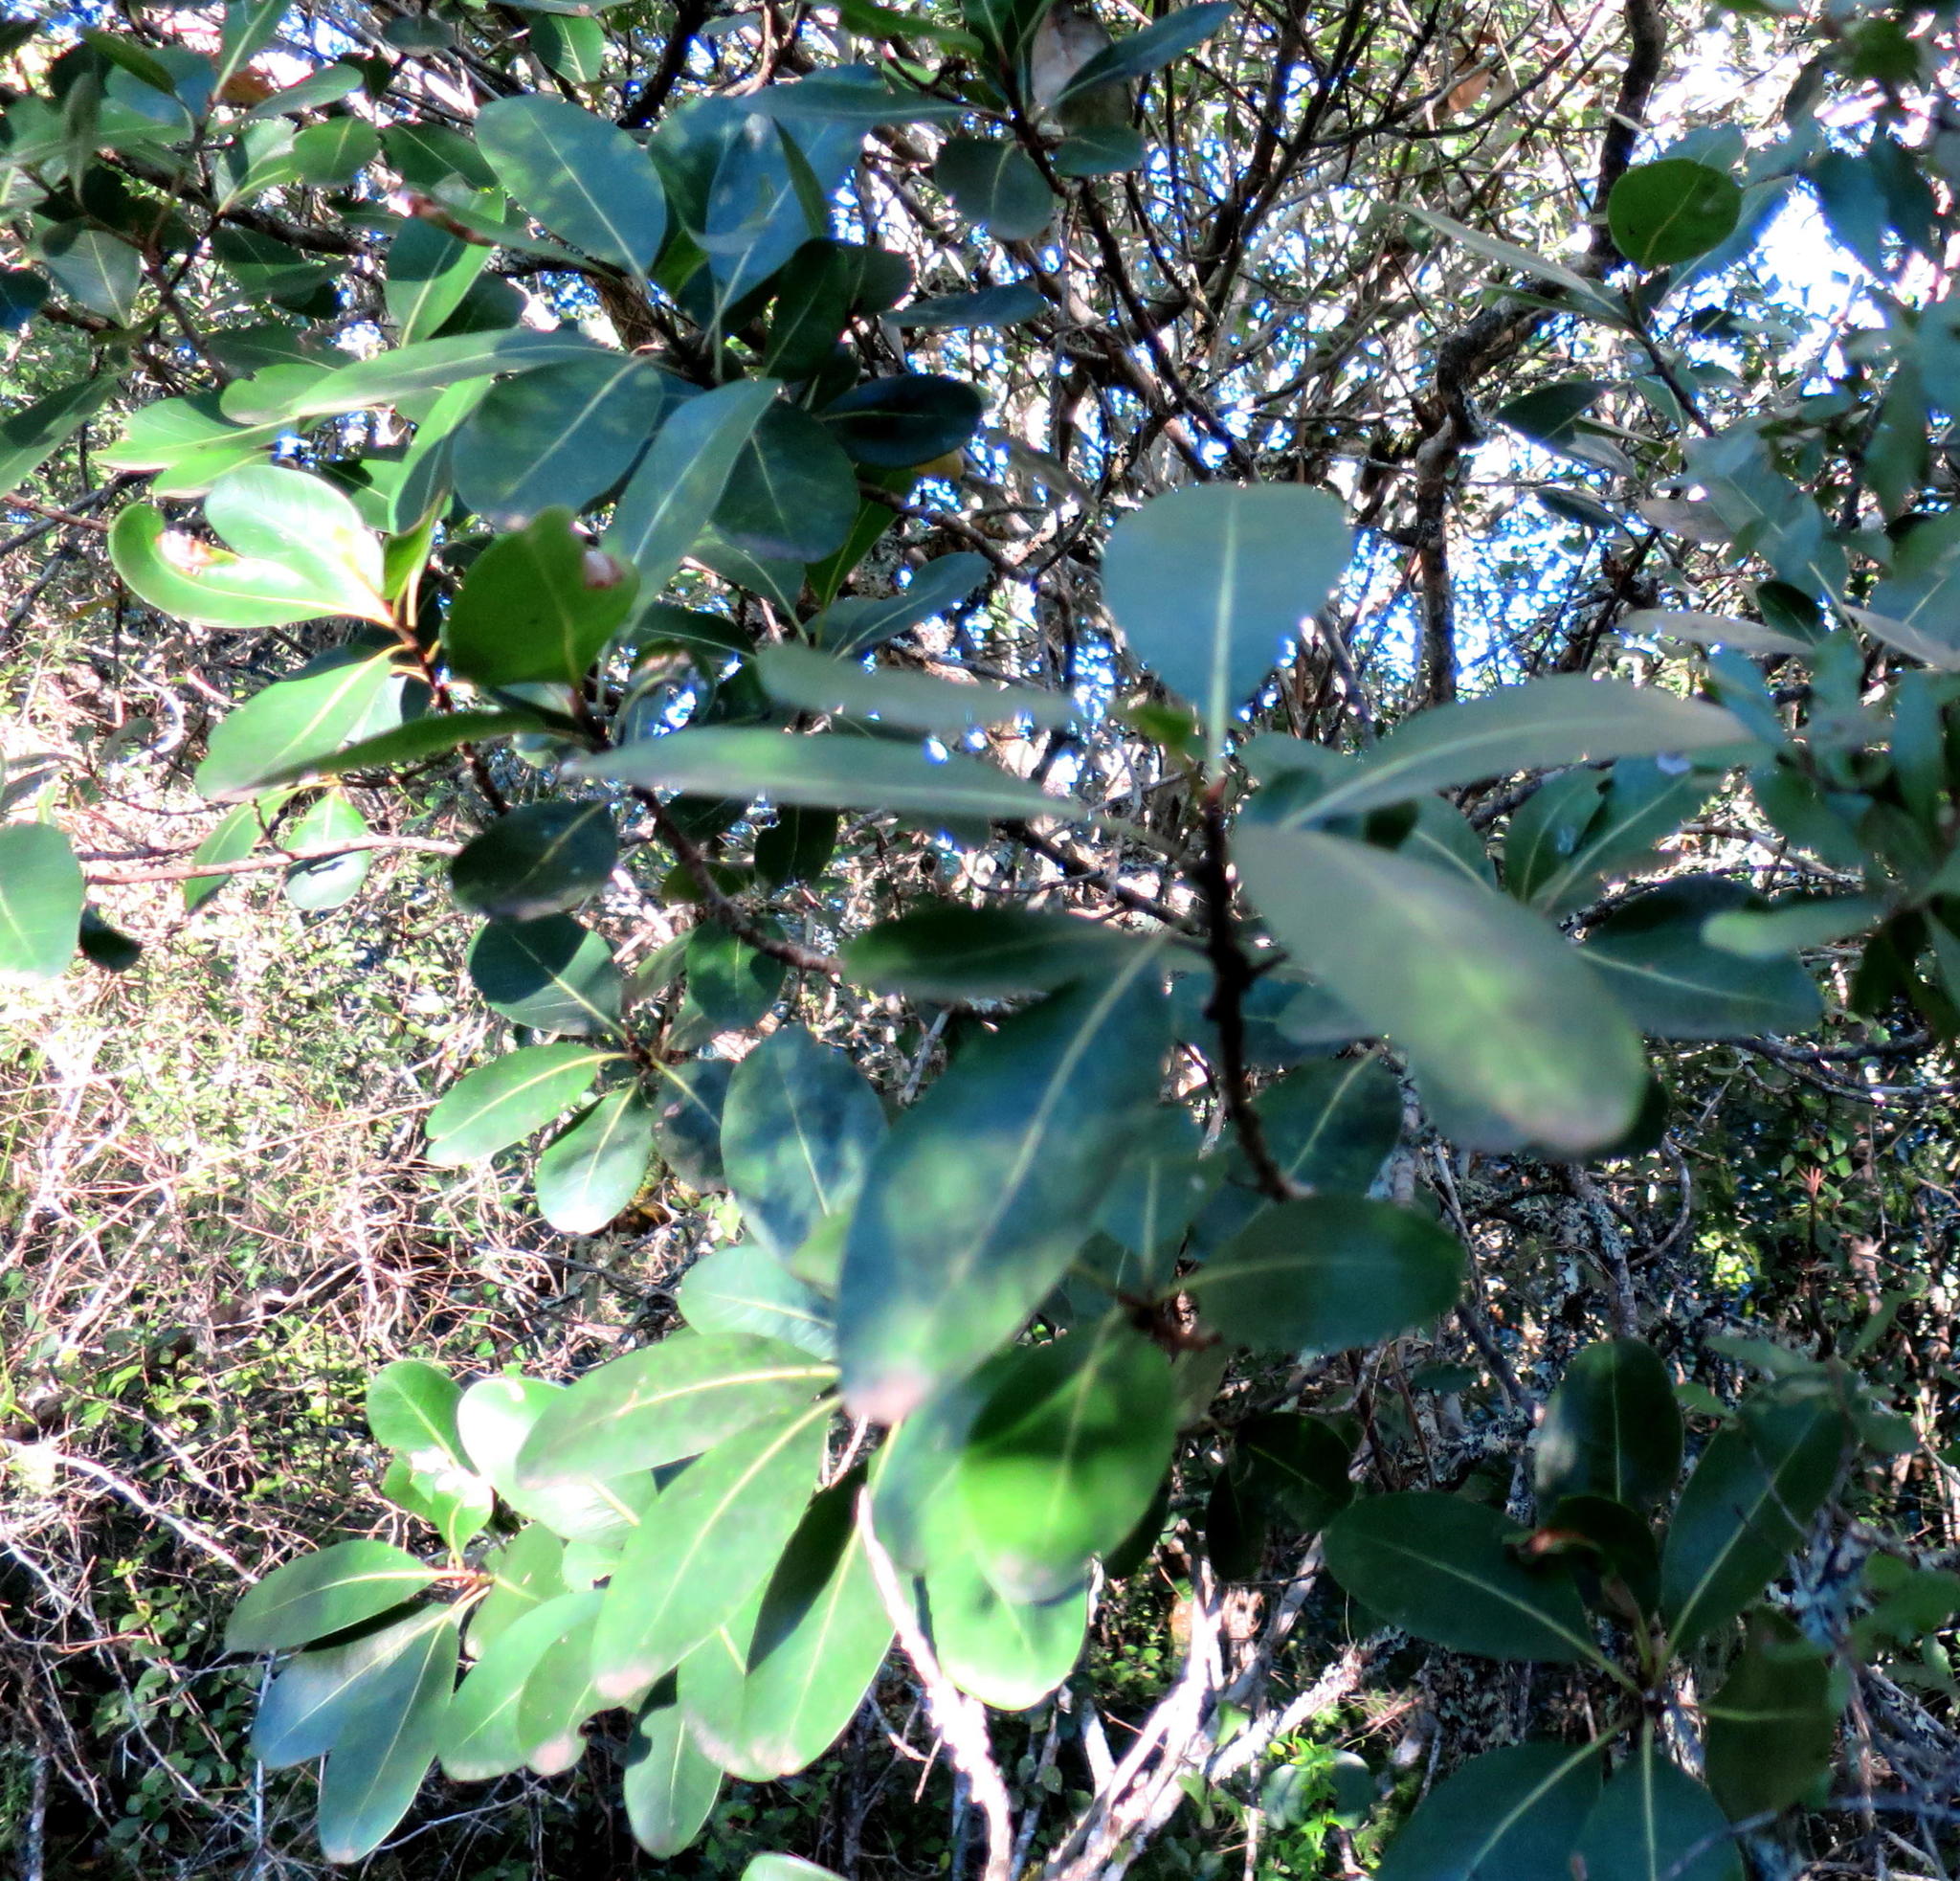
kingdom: Plantae
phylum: Tracheophyta
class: Magnoliopsida
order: Ericales
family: Primulaceae
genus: Myrsine
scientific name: Myrsine melanophloeos
